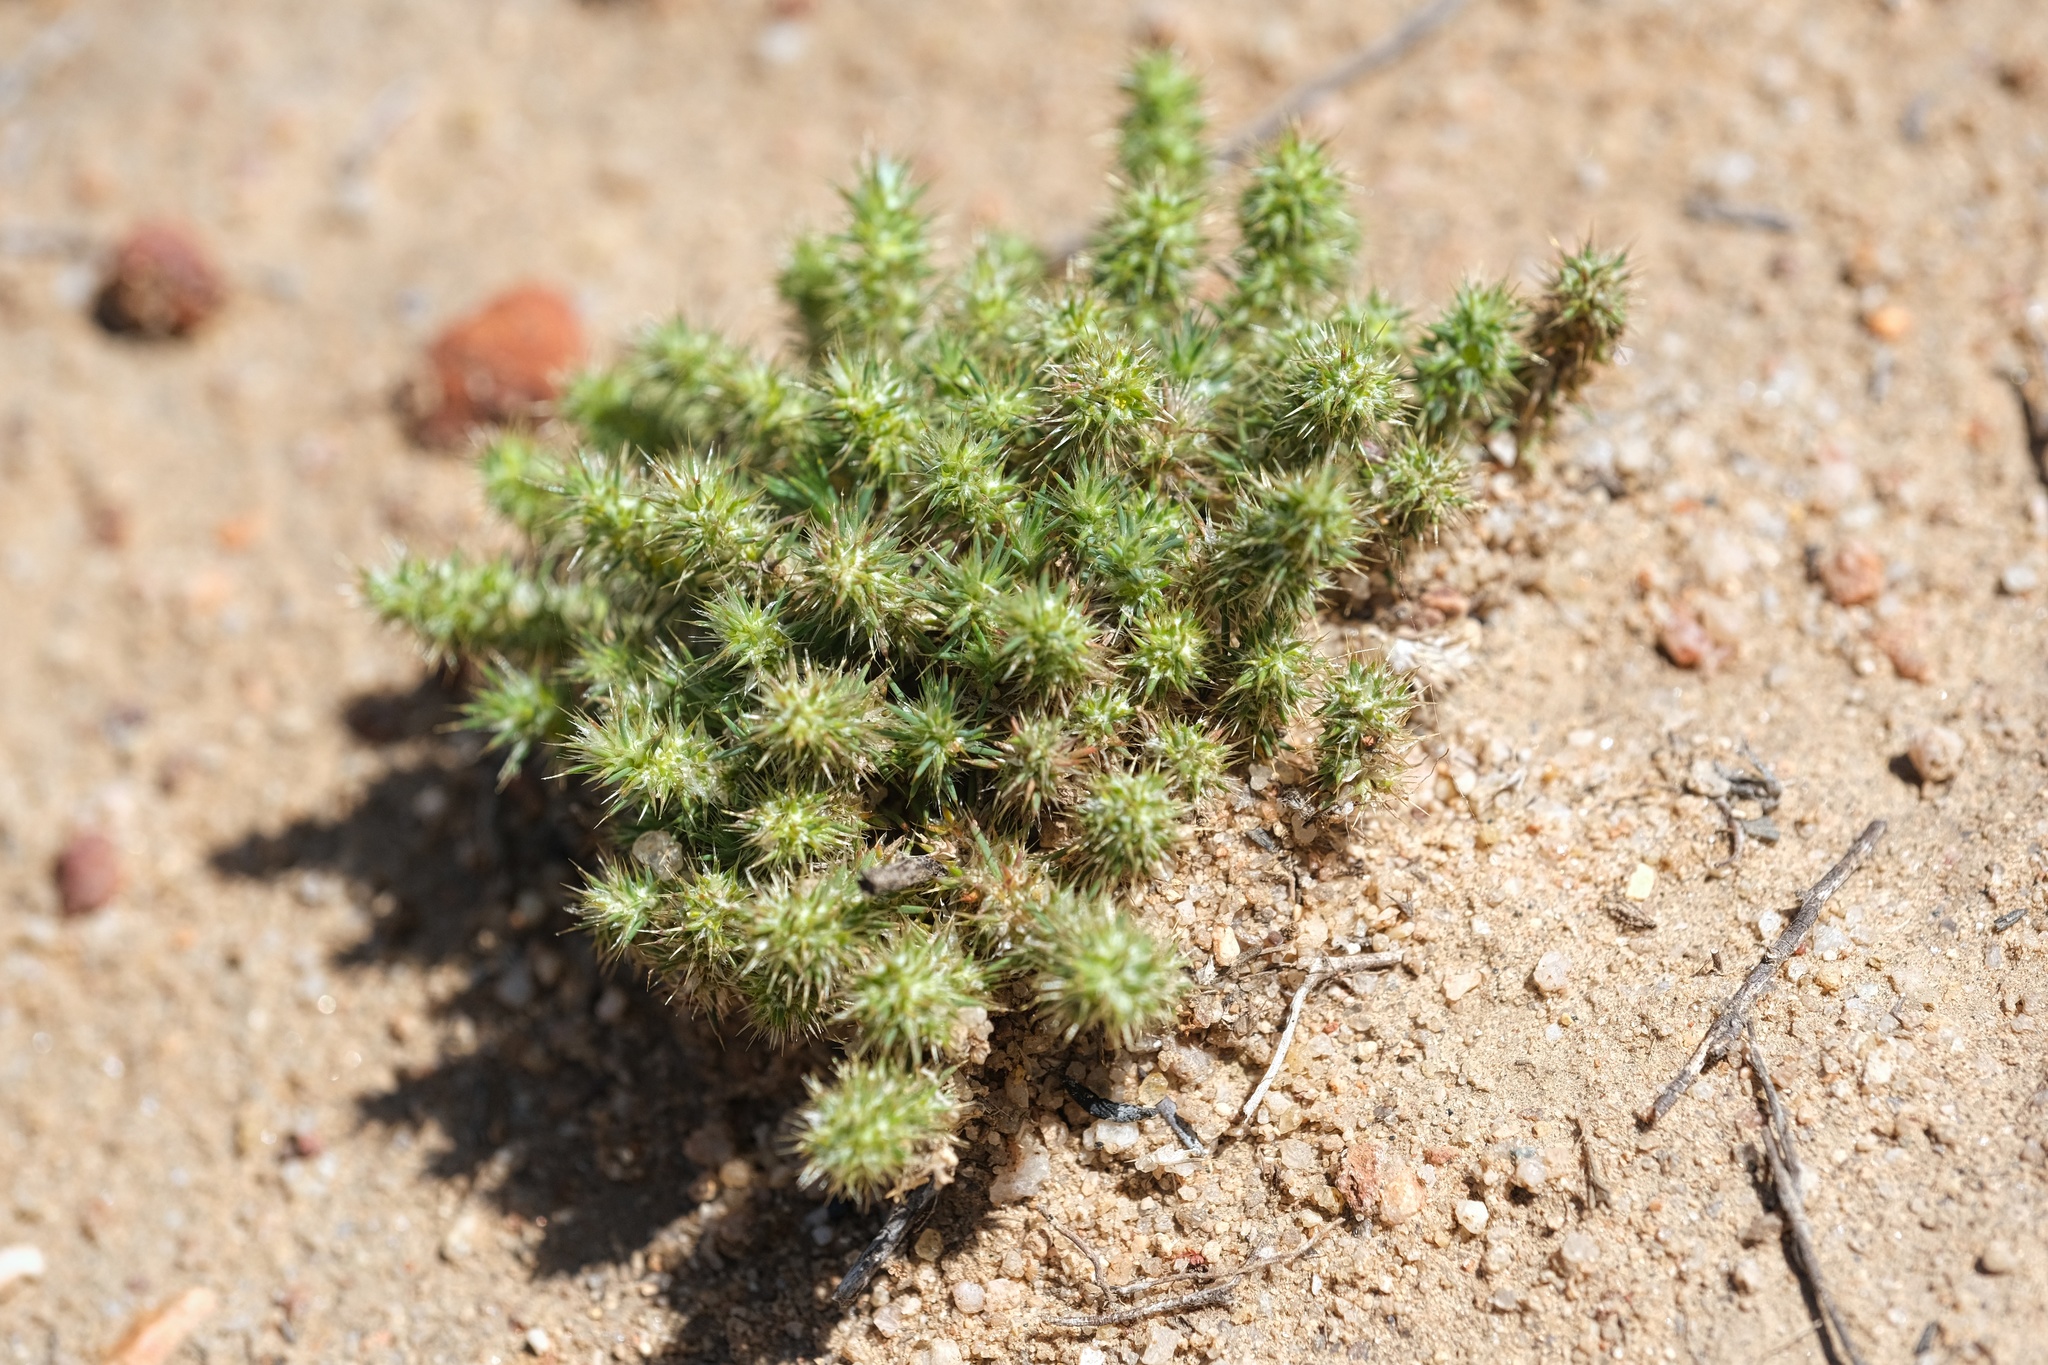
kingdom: Plantae
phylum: Tracheophyta
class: Magnoliopsida
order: Caryophyllales
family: Caryophyllaceae
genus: Cardionema
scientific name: Cardionema ramosissima
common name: Sandcarpet
